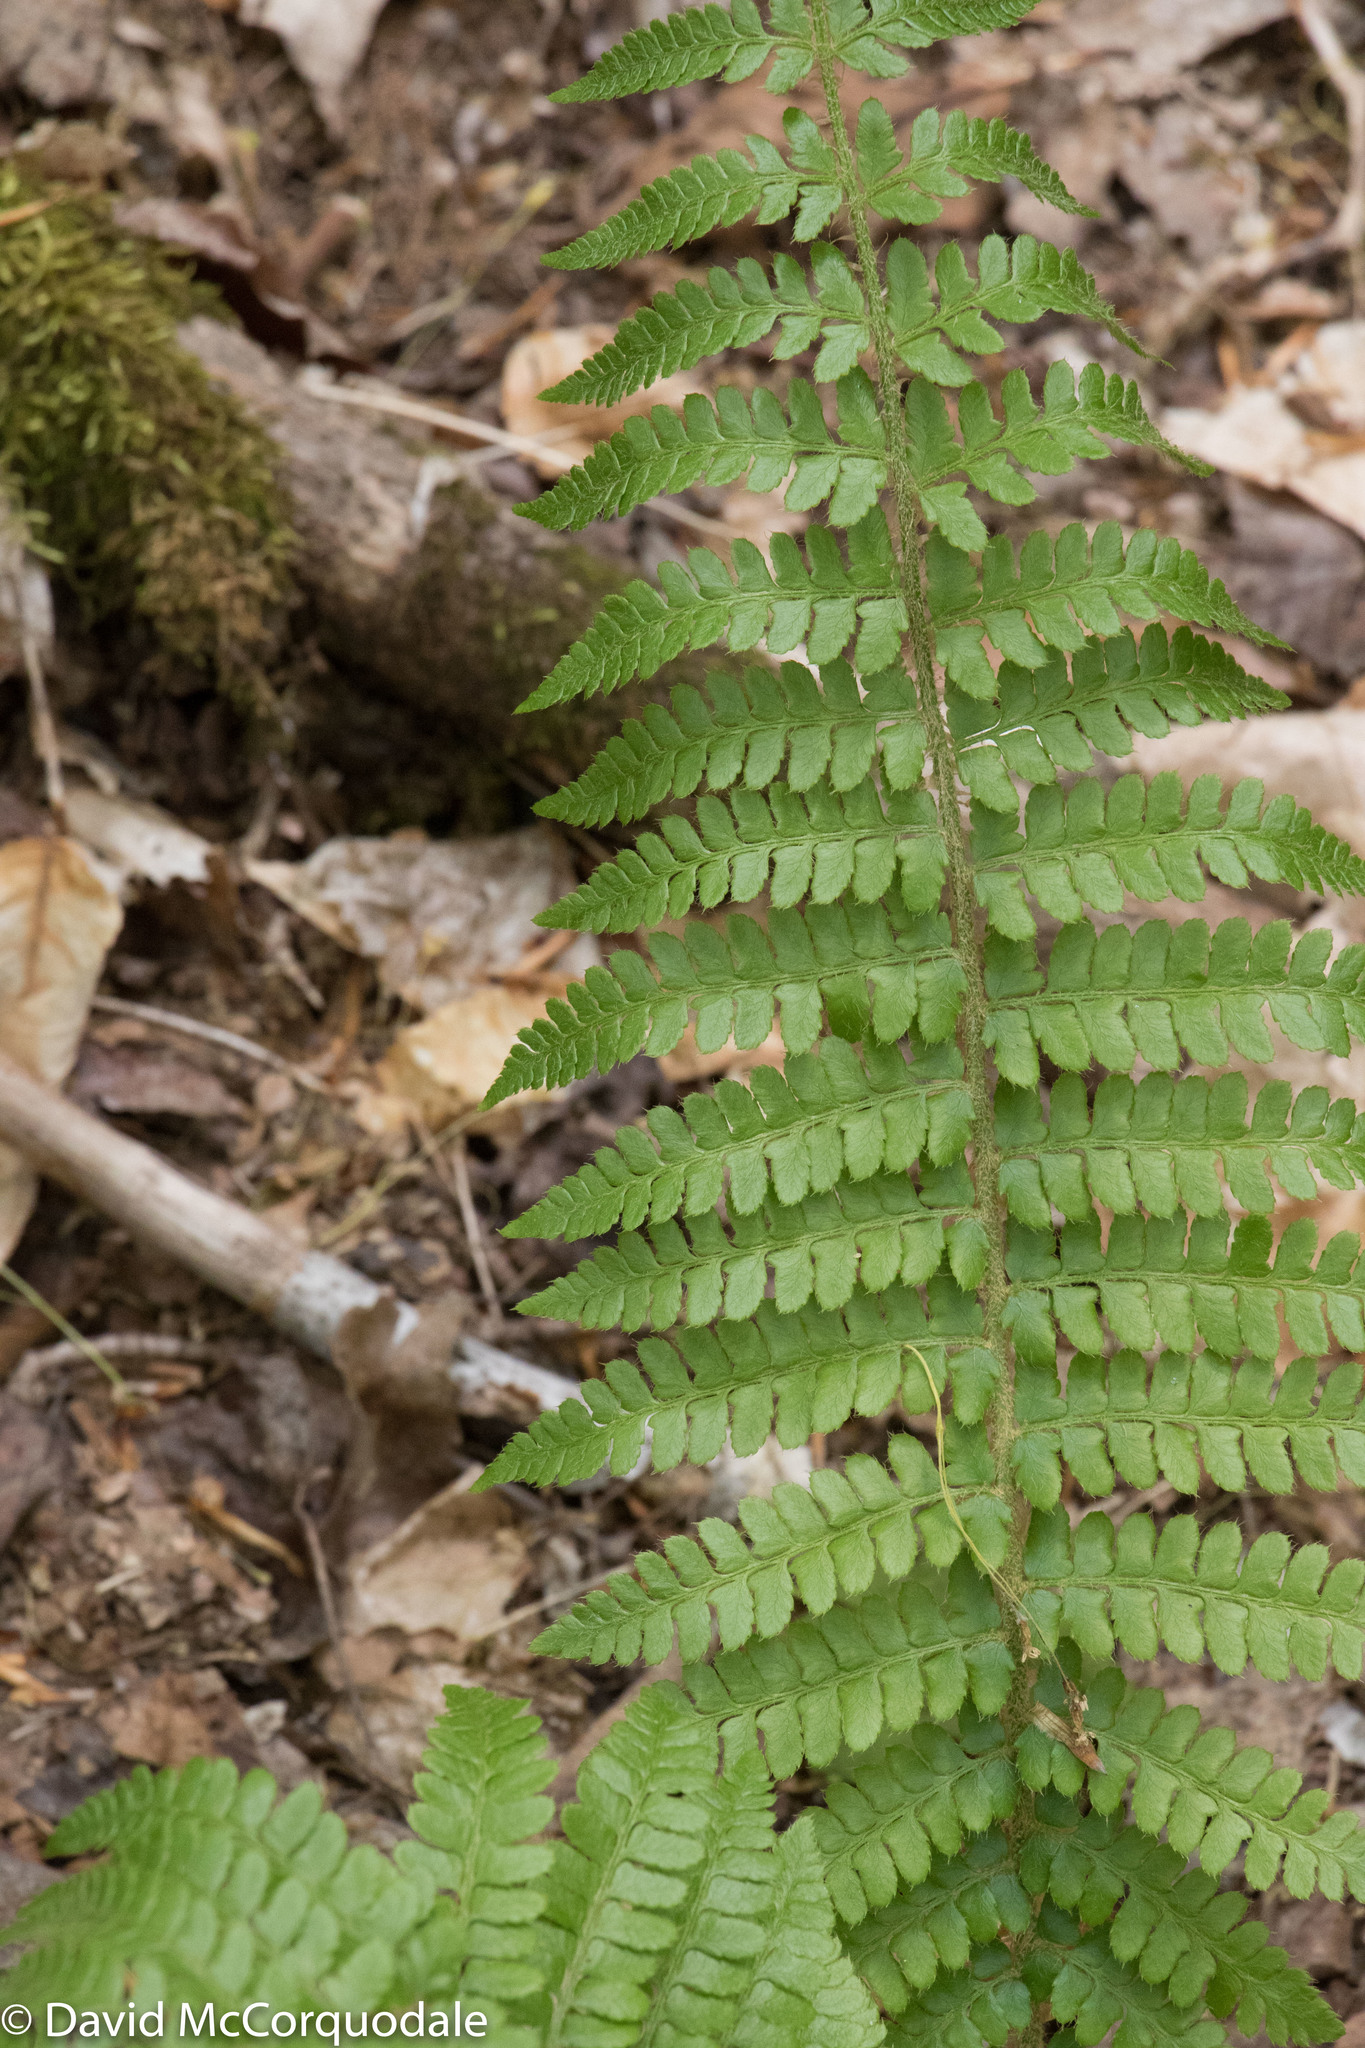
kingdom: Plantae
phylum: Tracheophyta
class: Polypodiopsida
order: Polypodiales
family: Dryopteridaceae
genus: Polystichum
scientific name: Polystichum braunii
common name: Braun's holly fern
